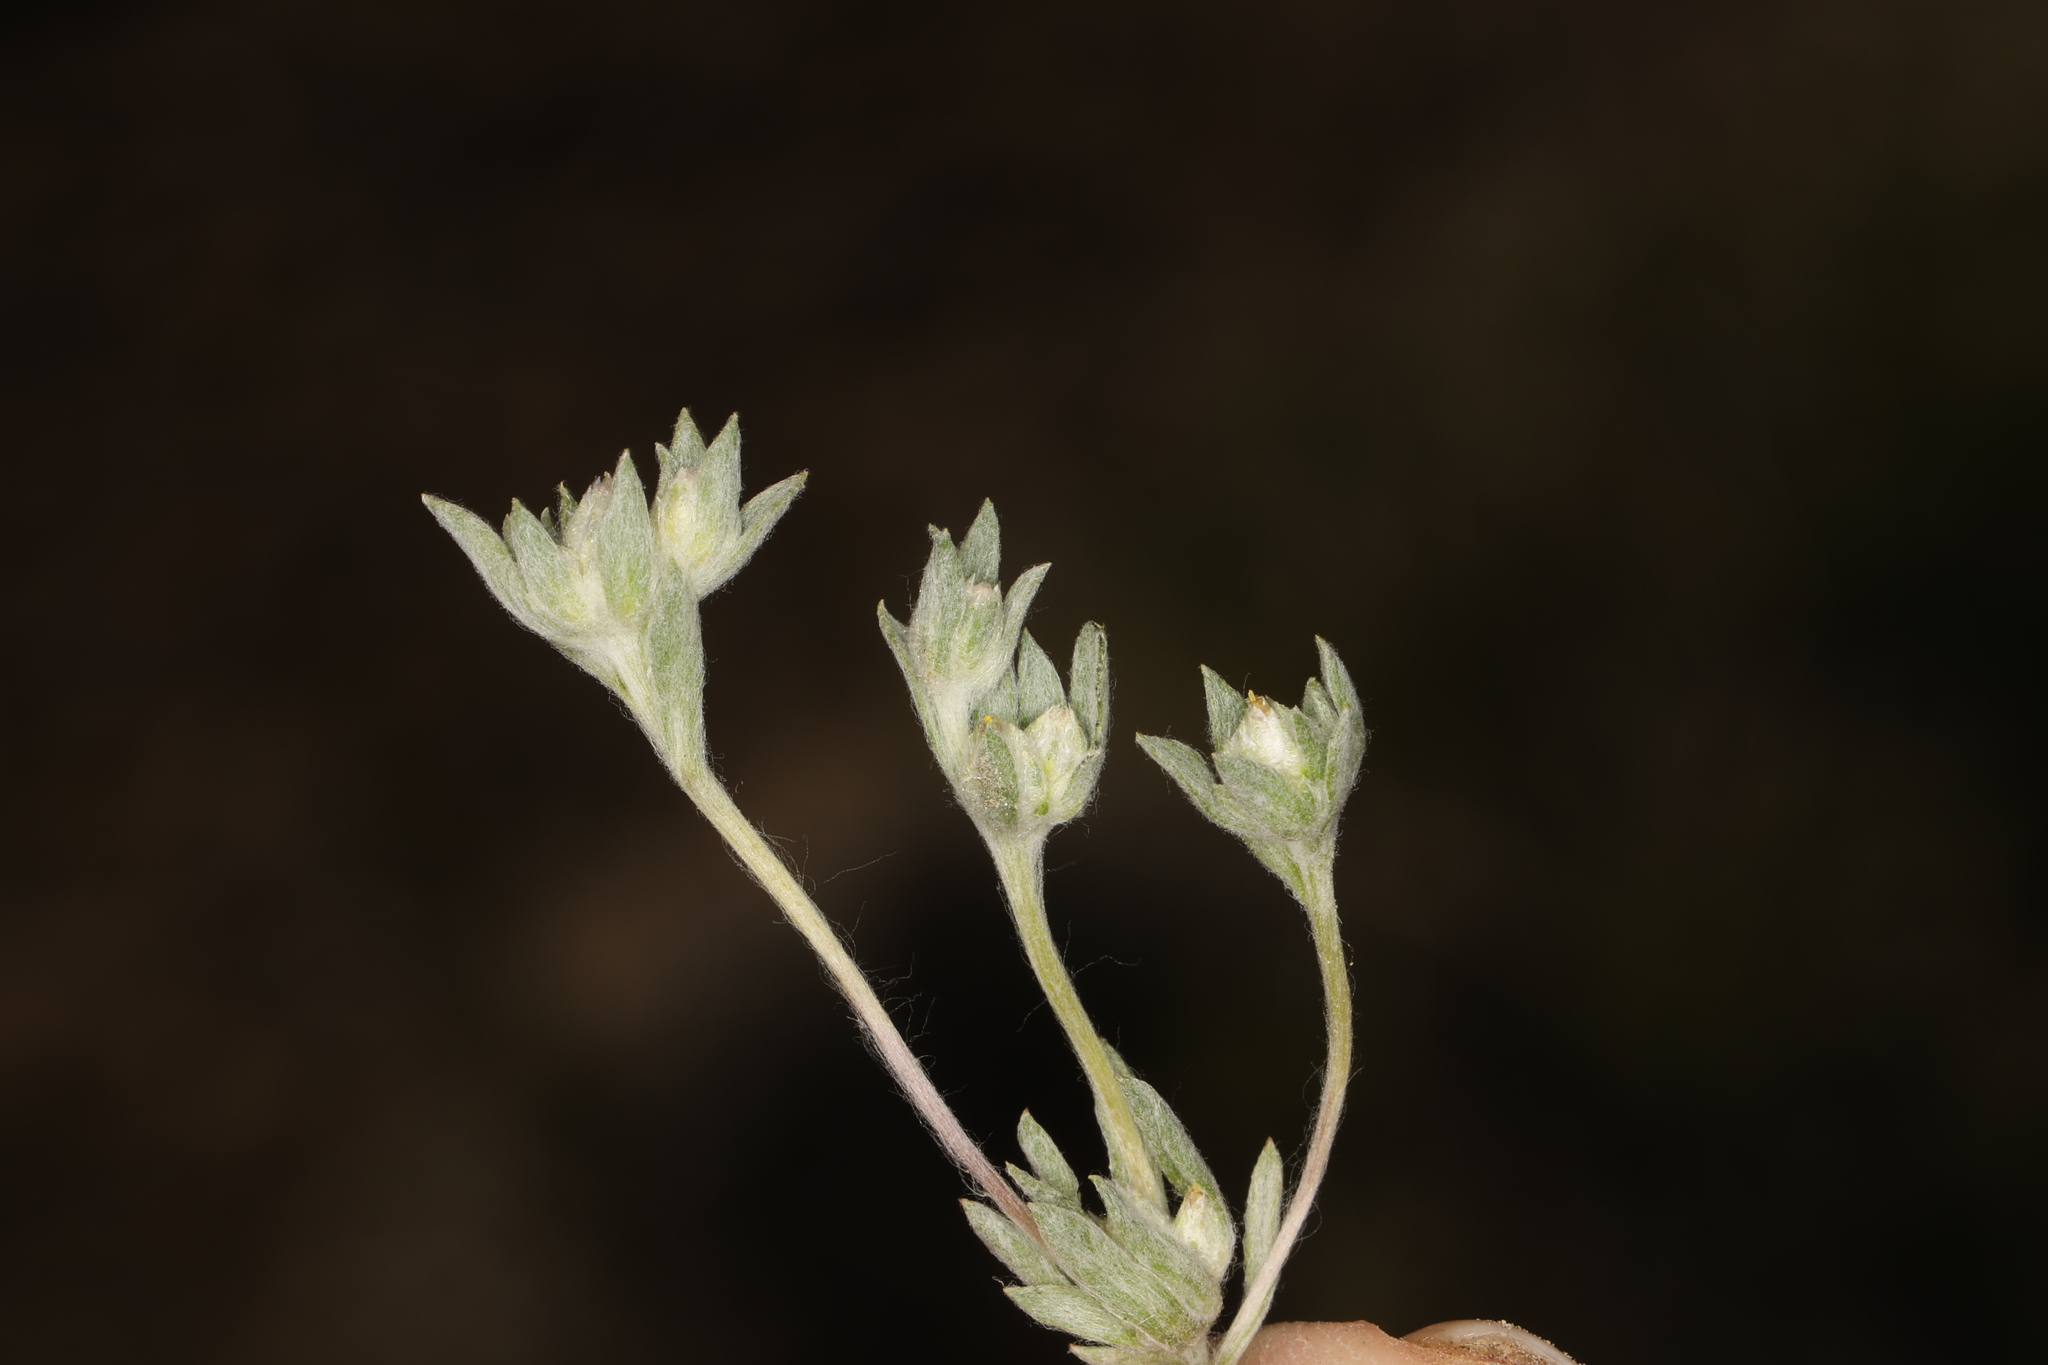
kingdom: Plantae
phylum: Tracheophyta
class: Magnoliopsida
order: Asterales
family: Asteraceae
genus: Stylocline
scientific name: Stylocline psilocarphoides
